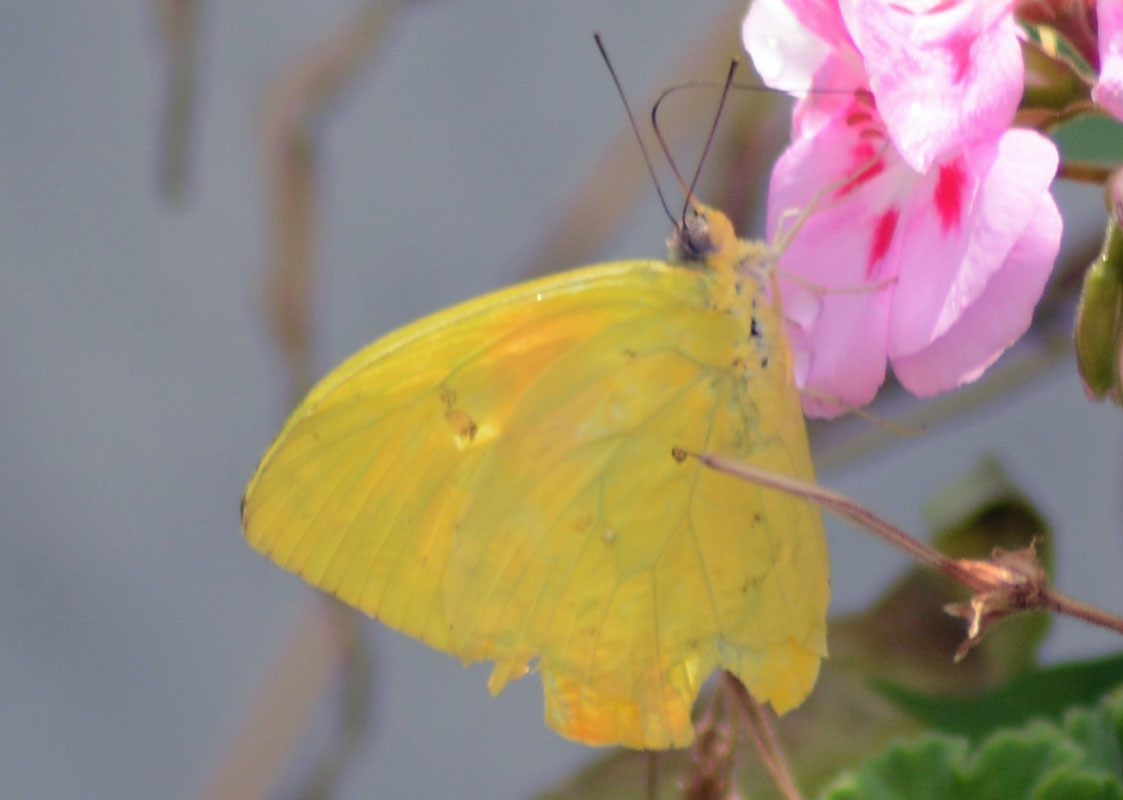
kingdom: Animalia
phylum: Arthropoda
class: Insecta
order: Lepidoptera
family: Pieridae
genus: Phoebis
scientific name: Phoebis philea
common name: Orange-barred giant sulphur
